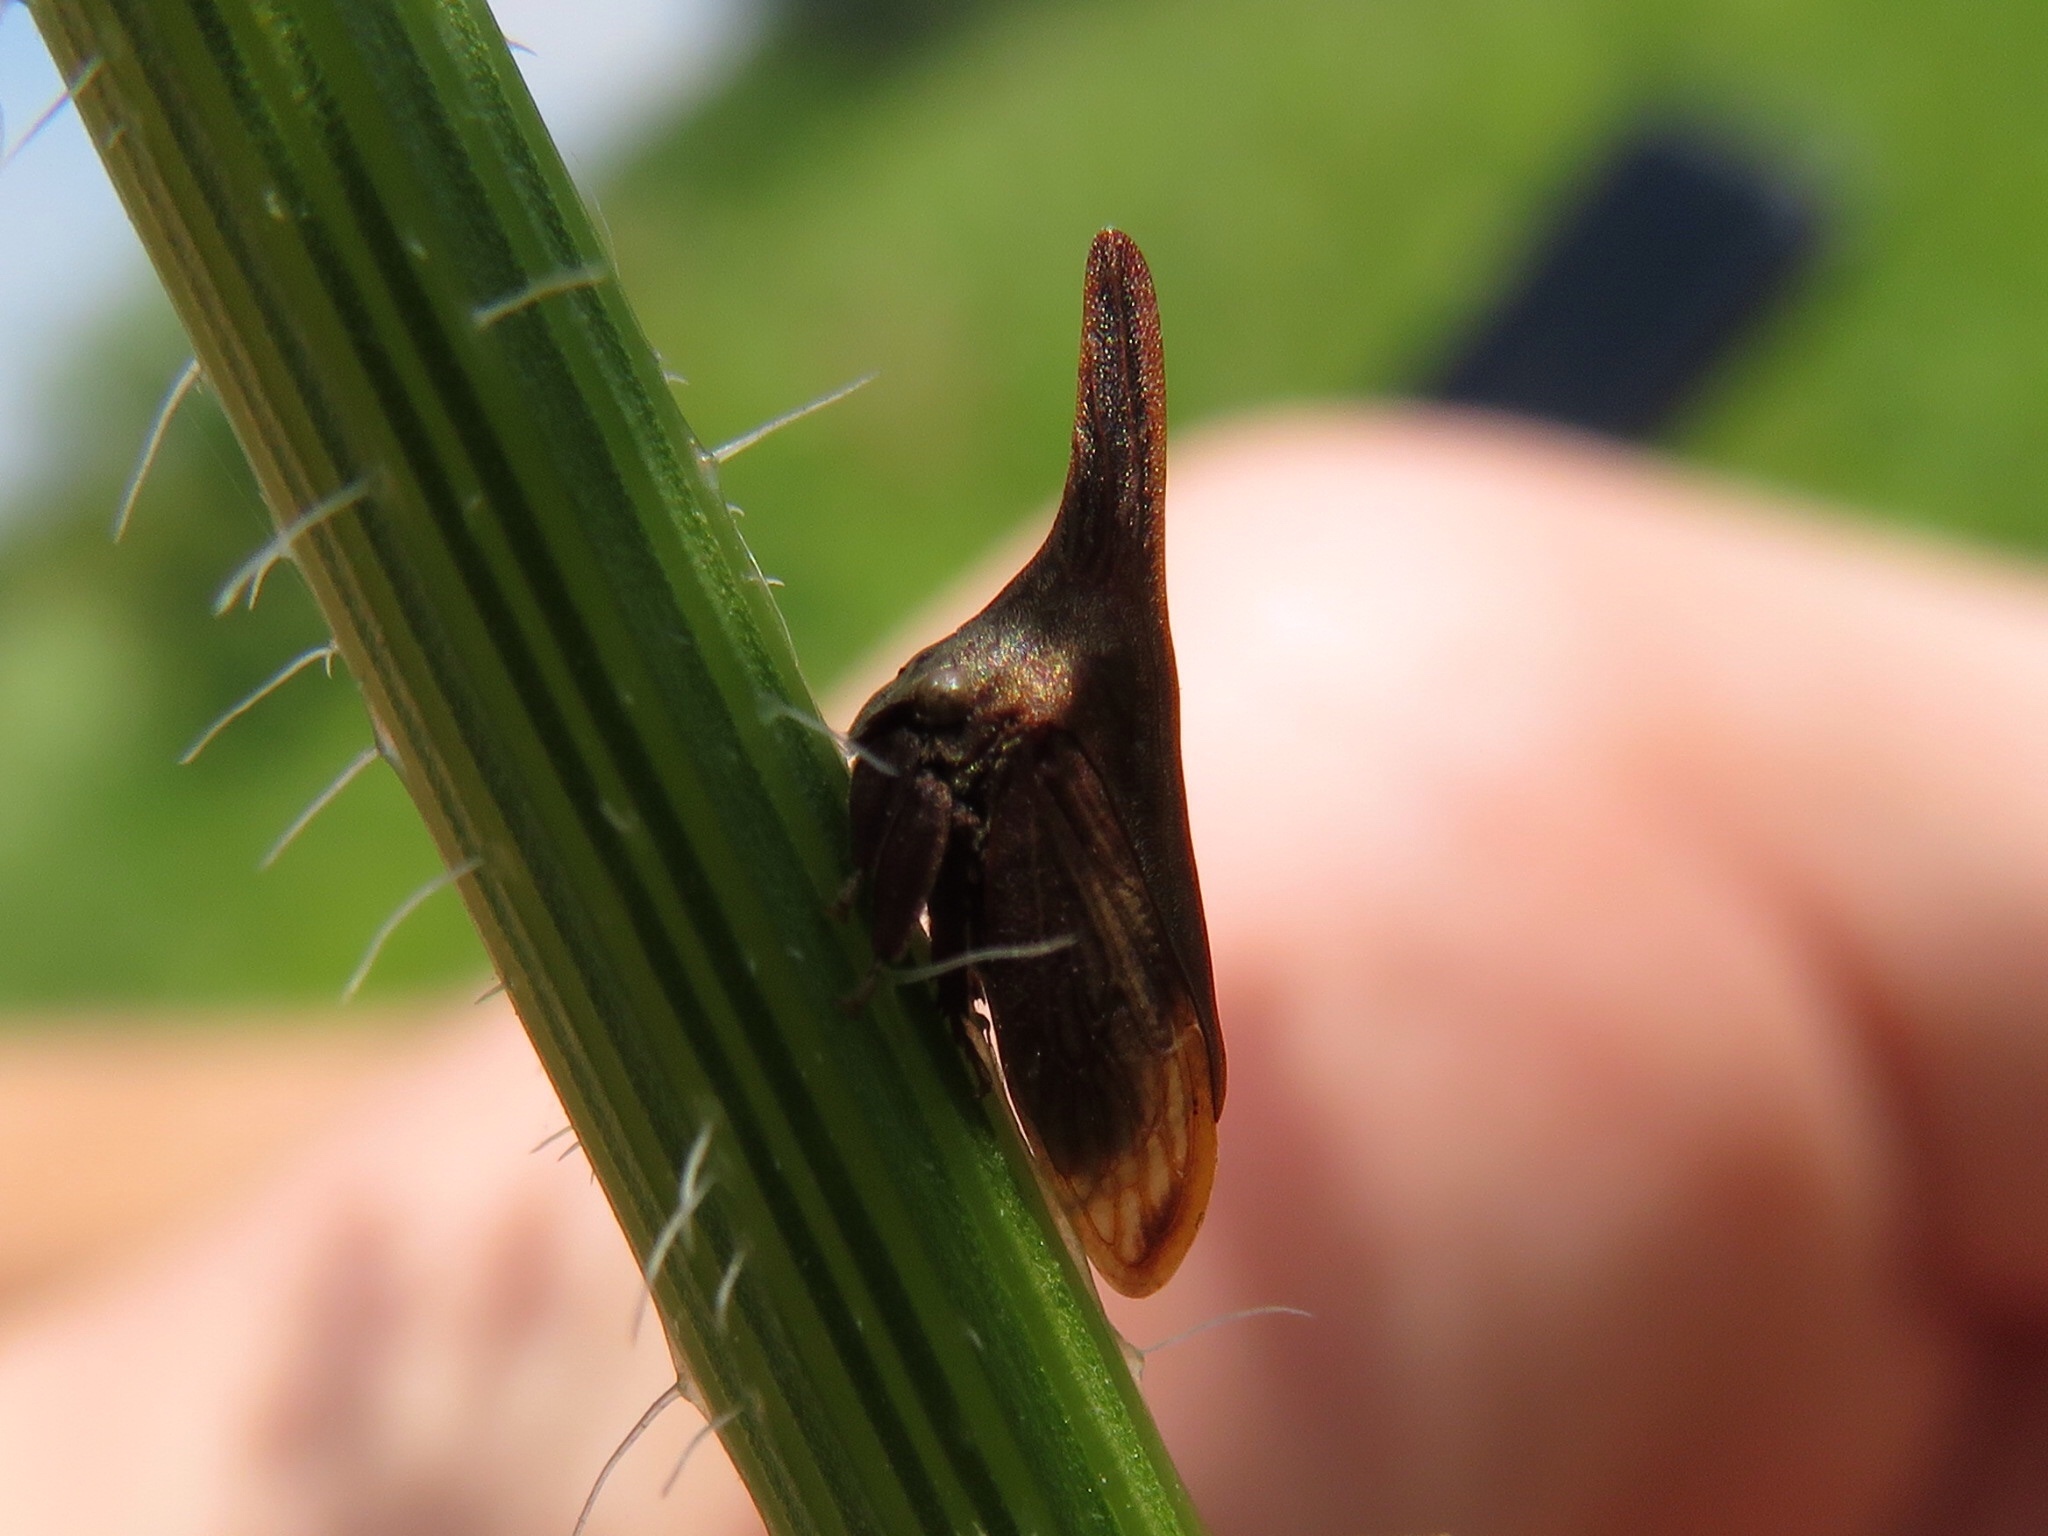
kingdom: Animalia
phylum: Arthropoda
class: Insecta
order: Hemiptera
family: Membracidae
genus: Enchenopa
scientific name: Enchenopa latipes
